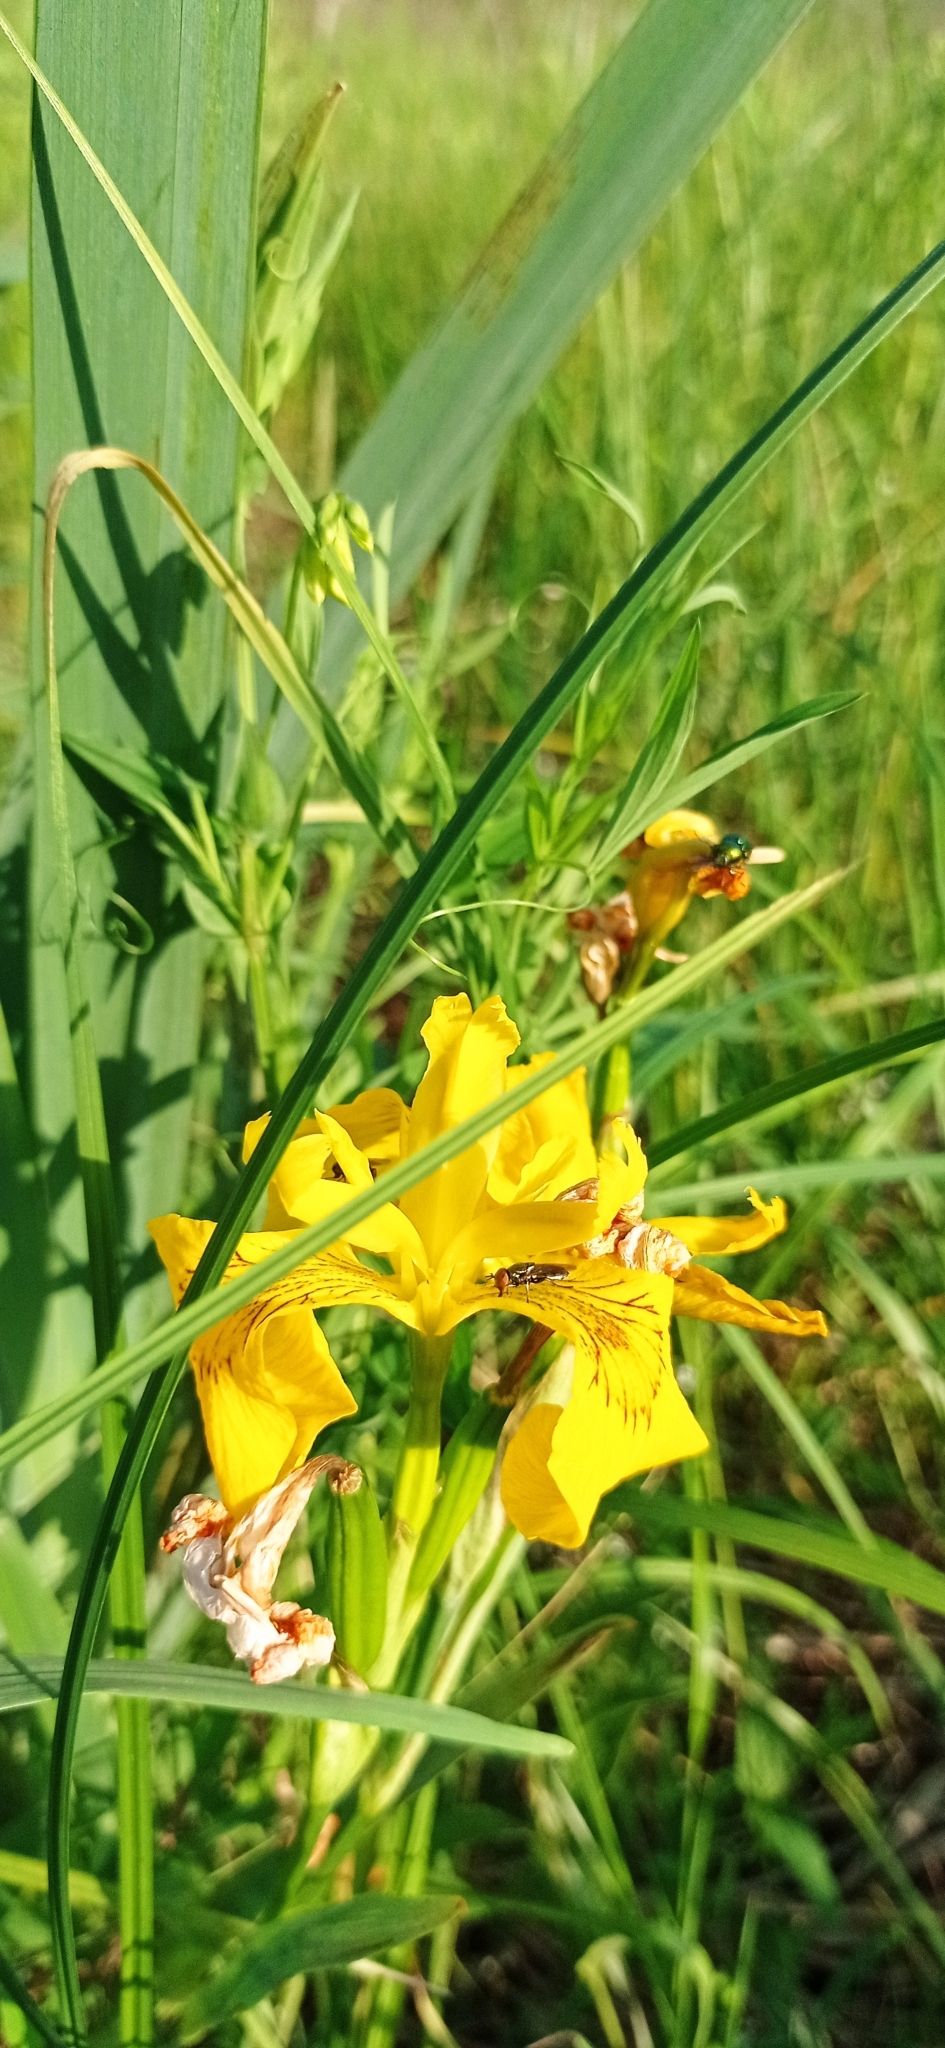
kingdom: Plantae
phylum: Tracheophyta
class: Liliopsida
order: Asparagales
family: Iridaceae
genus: Iris
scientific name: Iris pseudacorus
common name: Yellow flag
